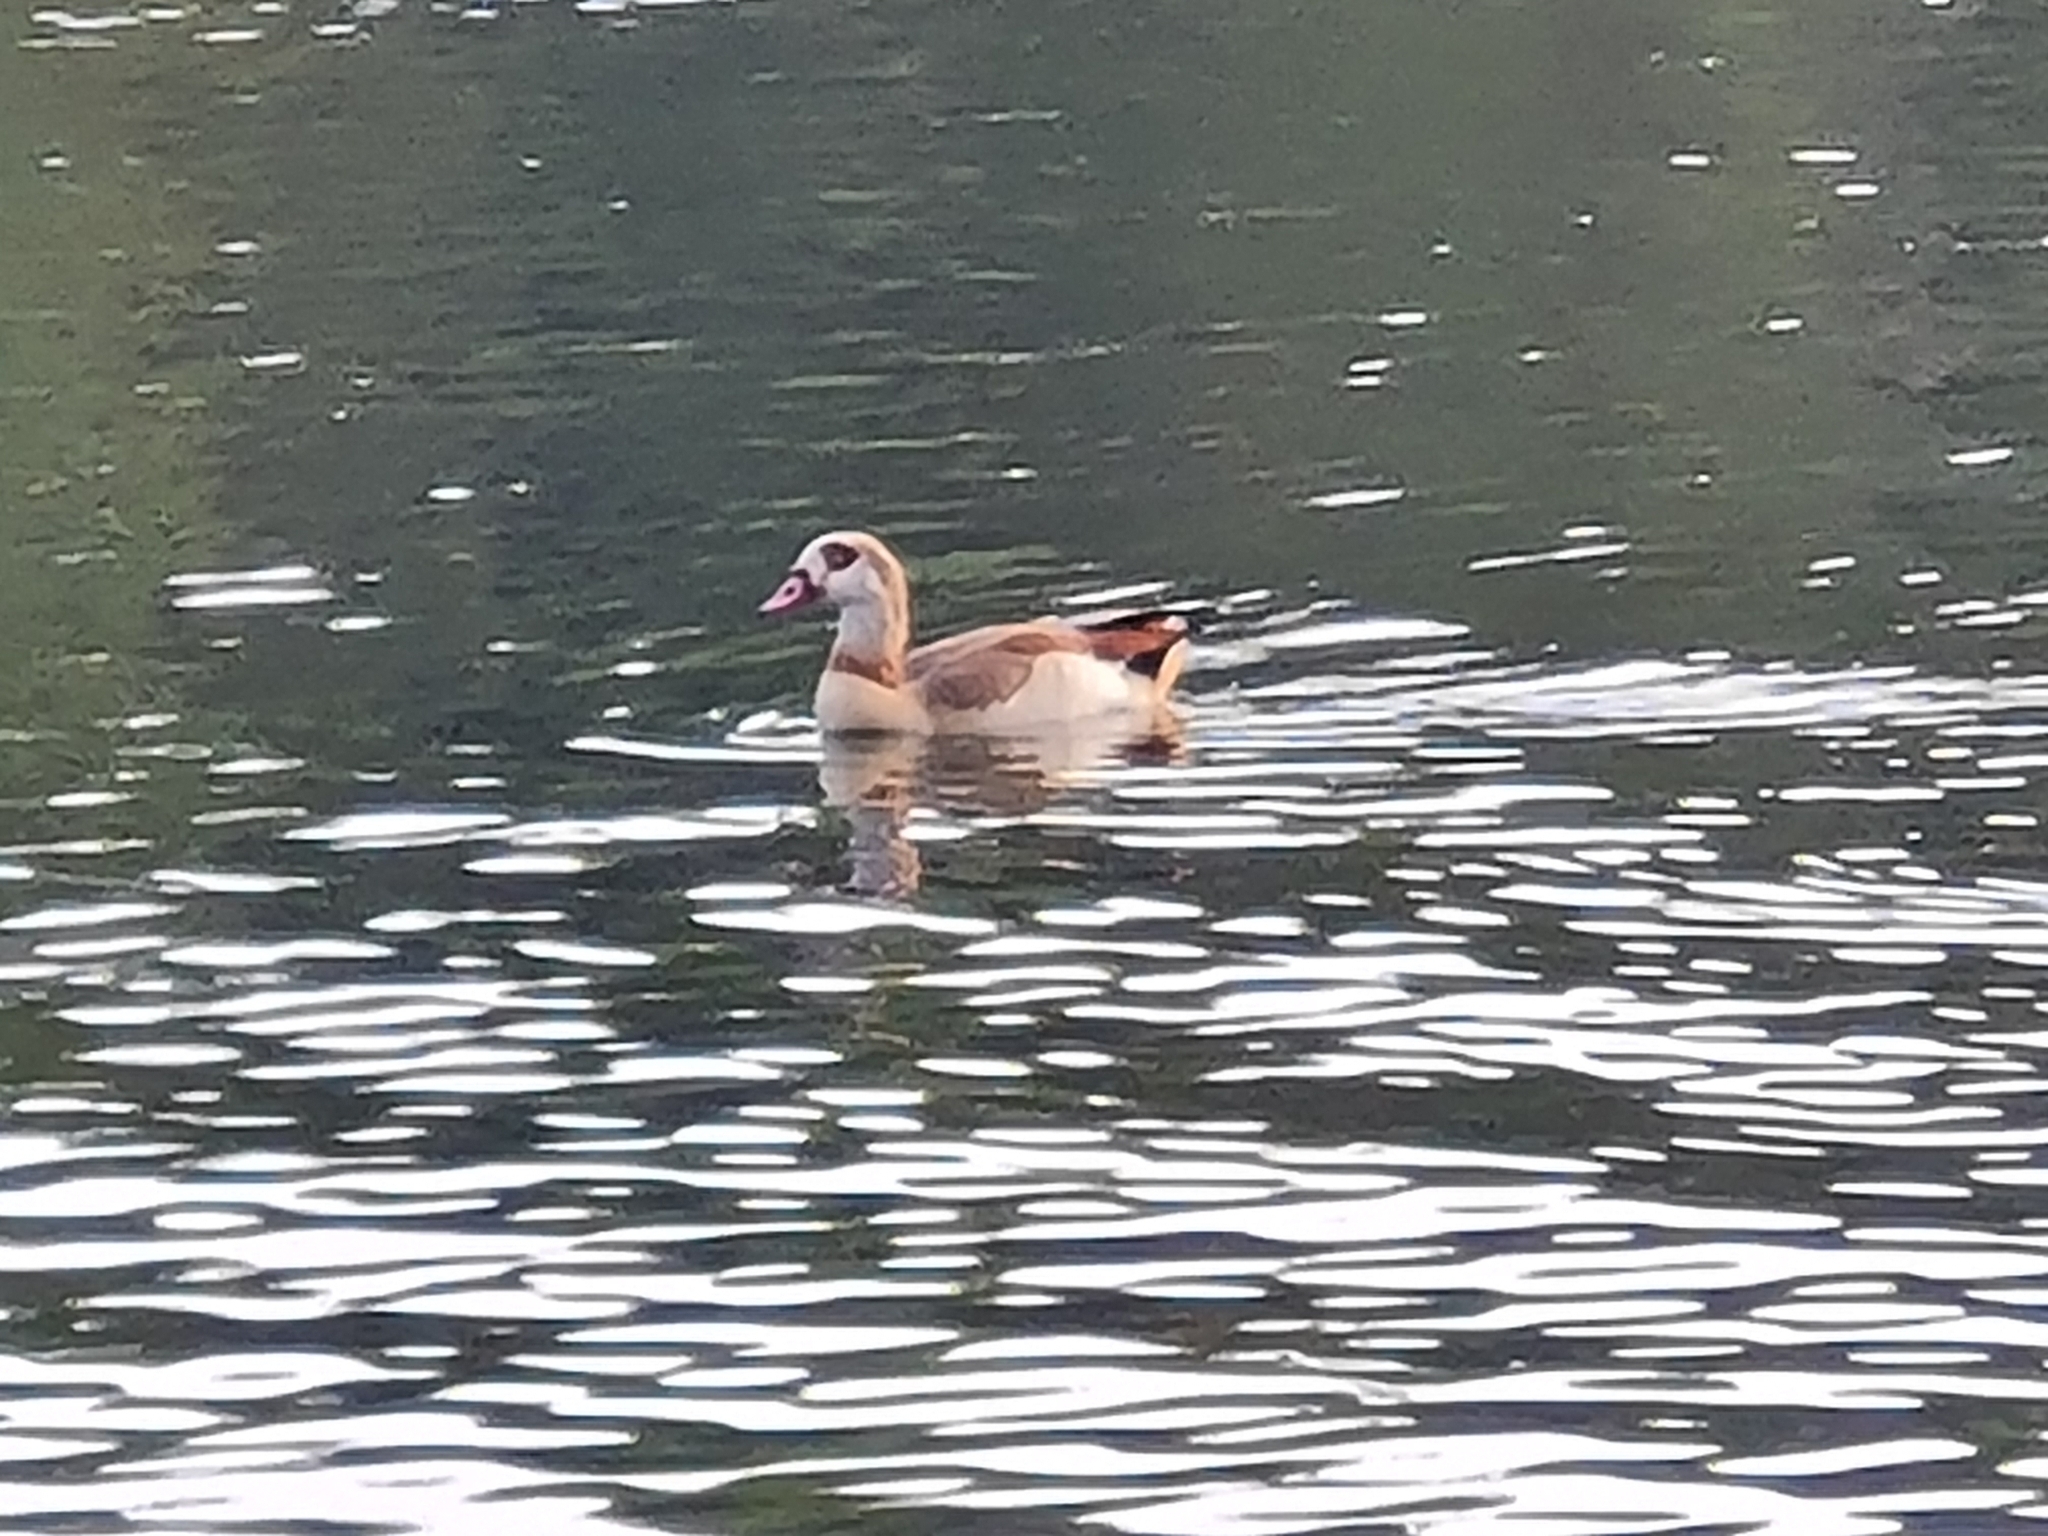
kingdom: Animalia
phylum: Chordata
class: Aves
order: Anseriformes
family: Anatidae
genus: Alopochen
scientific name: Alopochen aegyptiaca
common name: Egyptian goose
